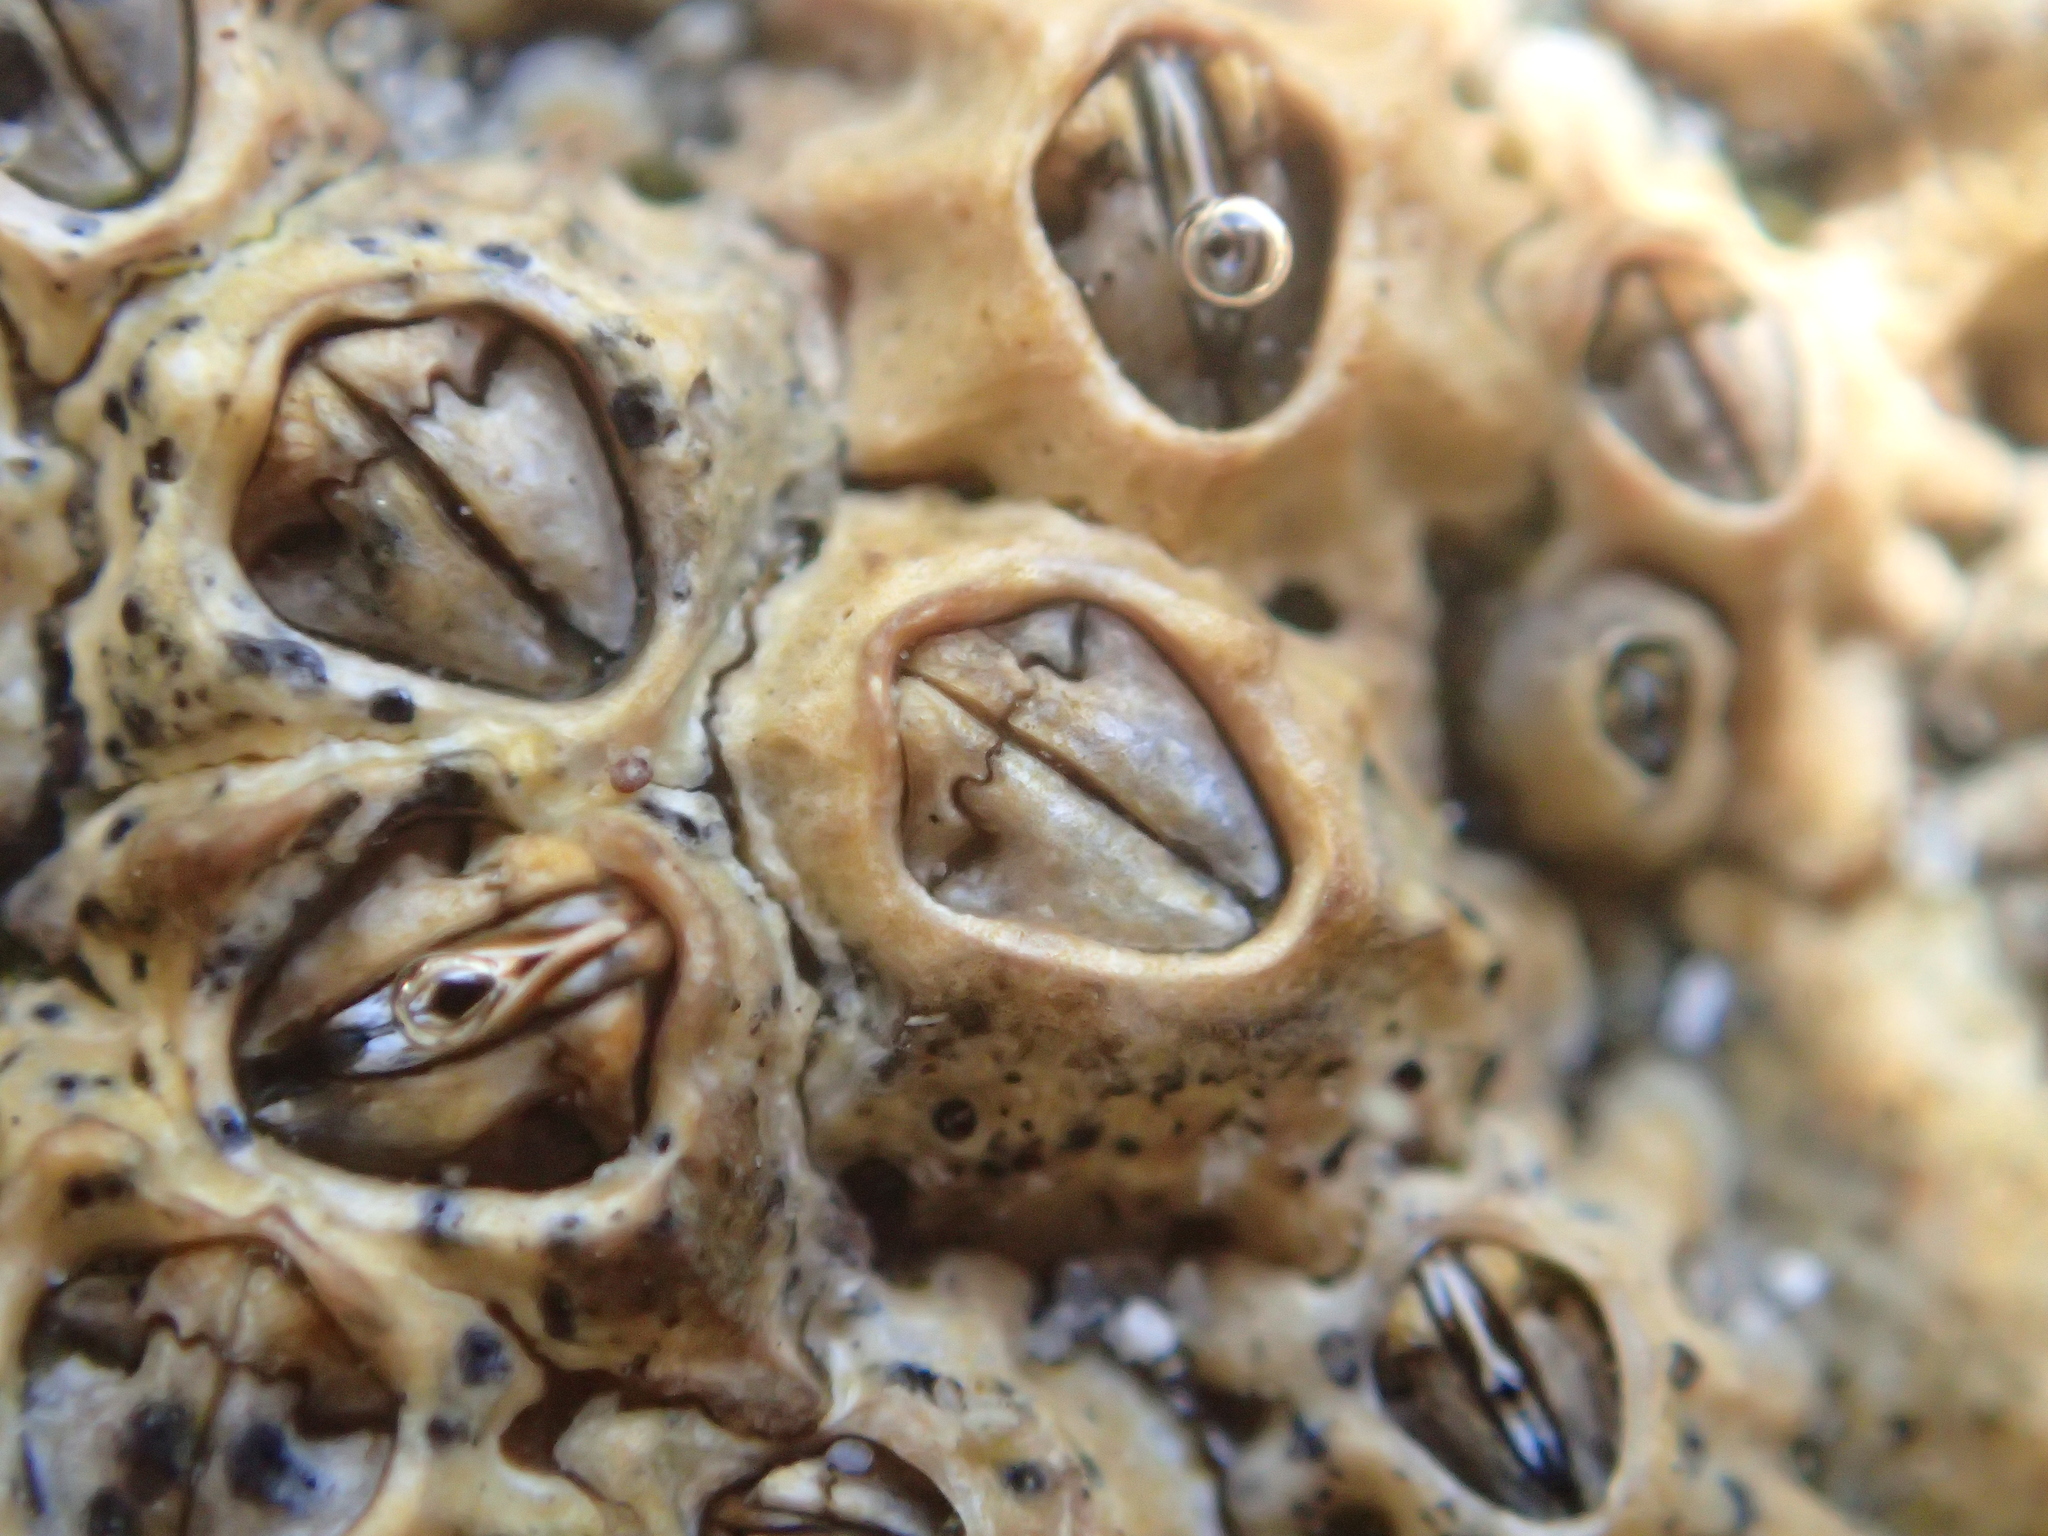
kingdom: Animalia
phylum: Arthropoda
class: Maxillopoda
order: Sessilia
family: Chthamalidae
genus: Chamaesipho
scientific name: Chamaesipho columna
